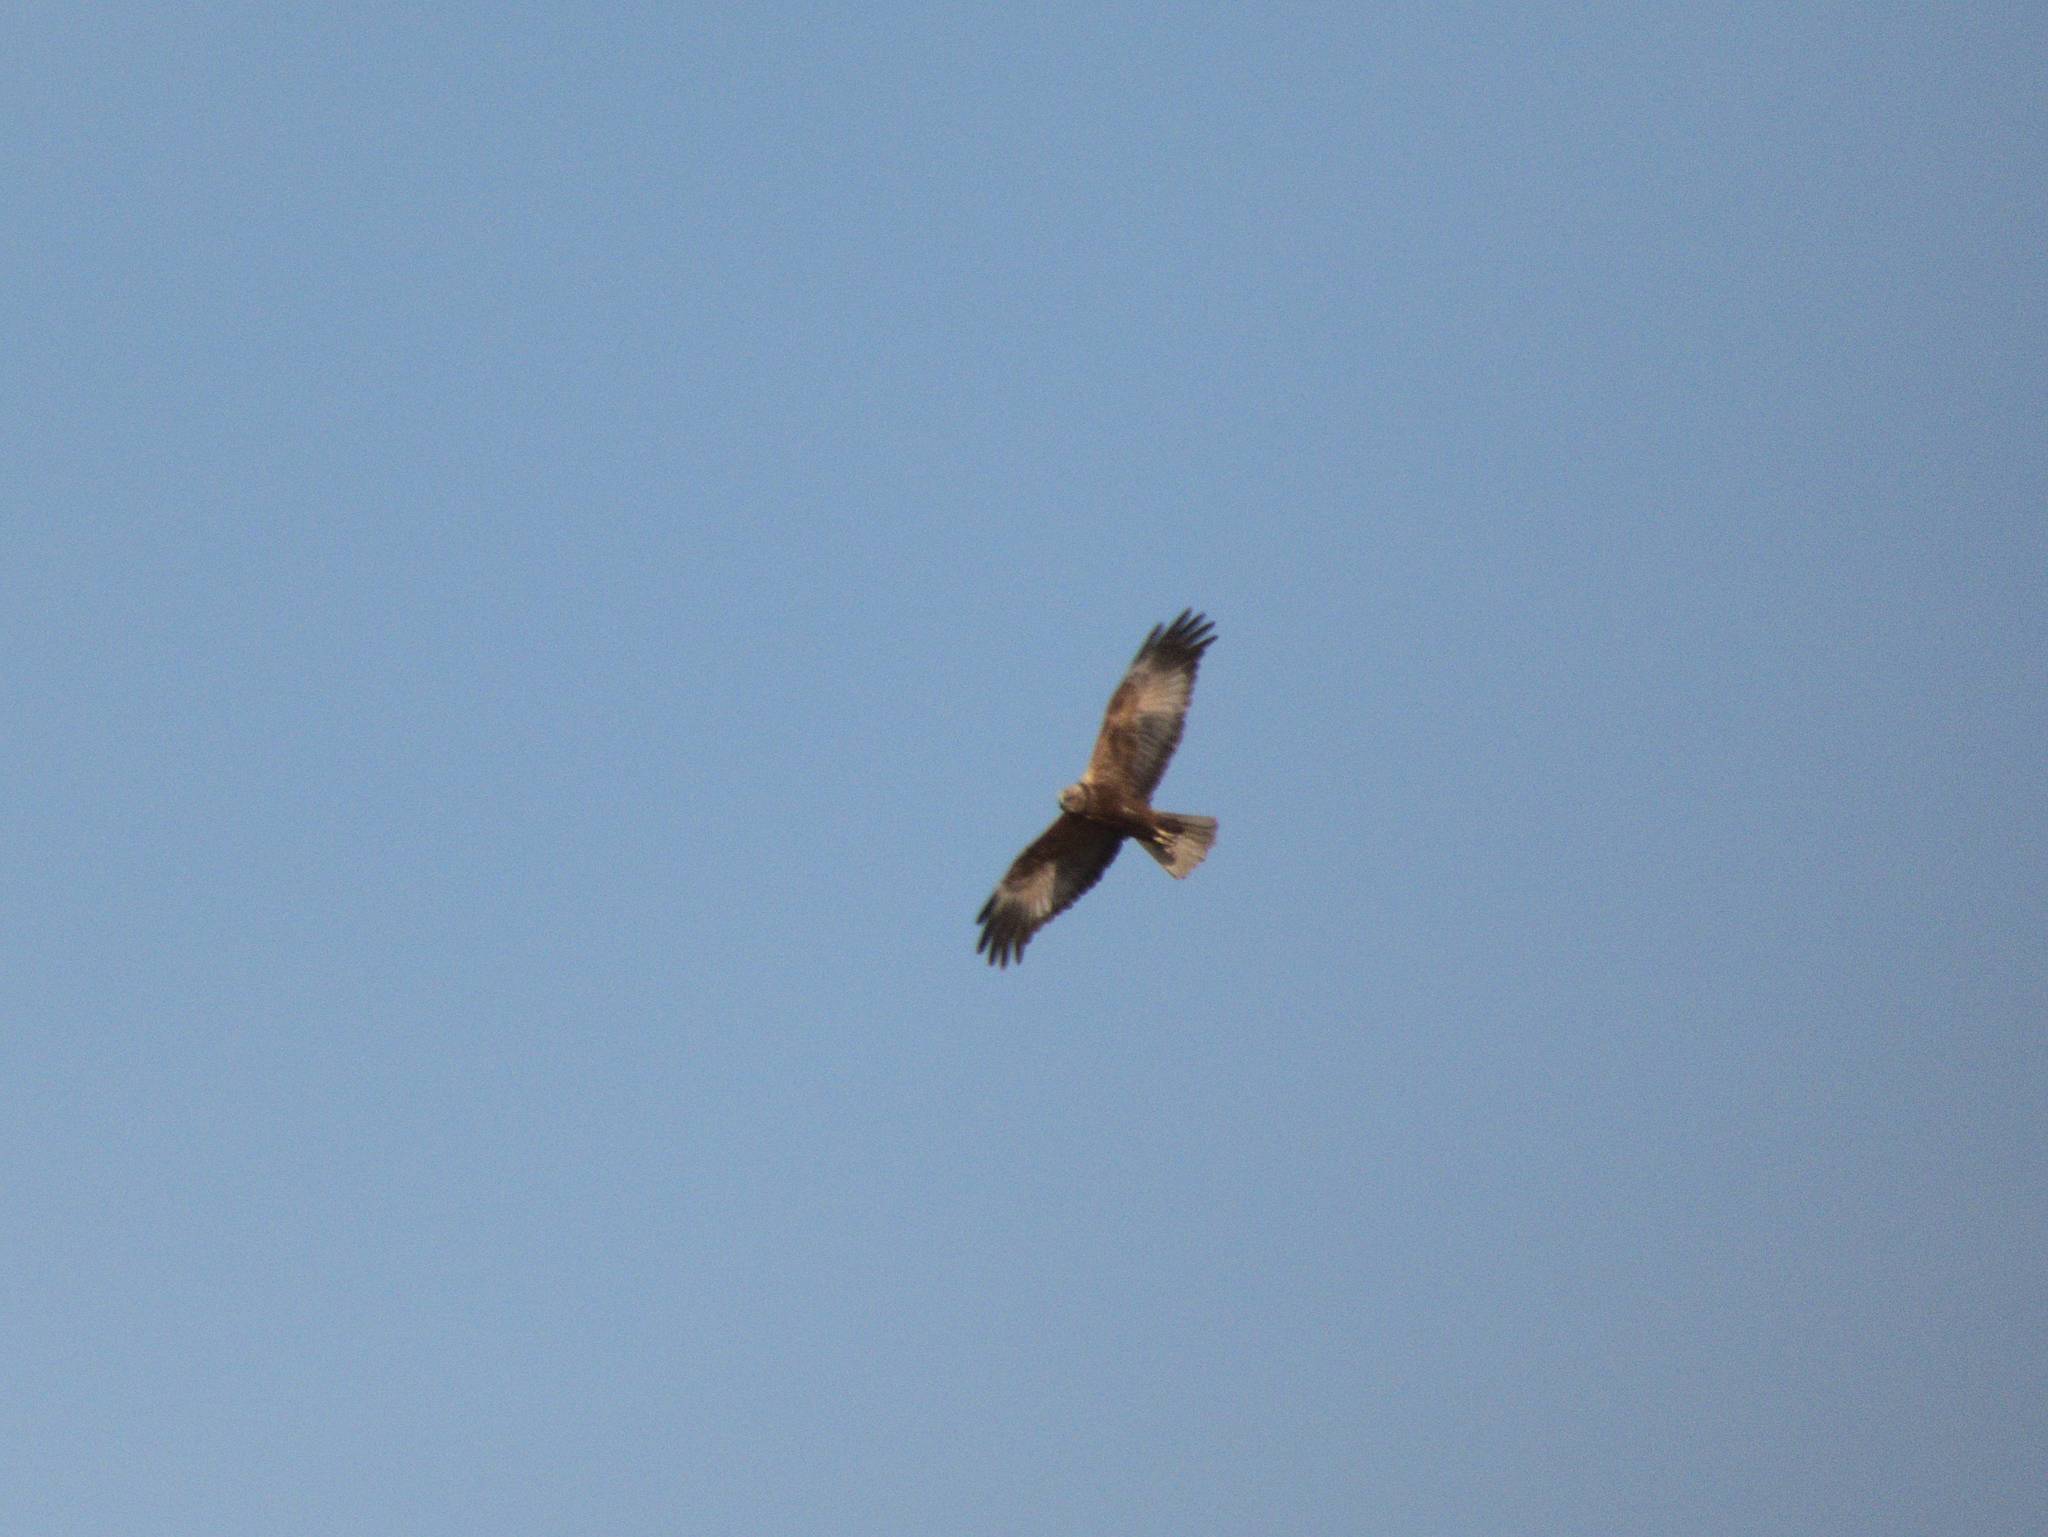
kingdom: Animalia
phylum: Chordata
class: Aves
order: Accipitriformes
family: Accipitridae
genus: Circus
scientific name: Circus aeruginosus
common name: Western marsh harrier
